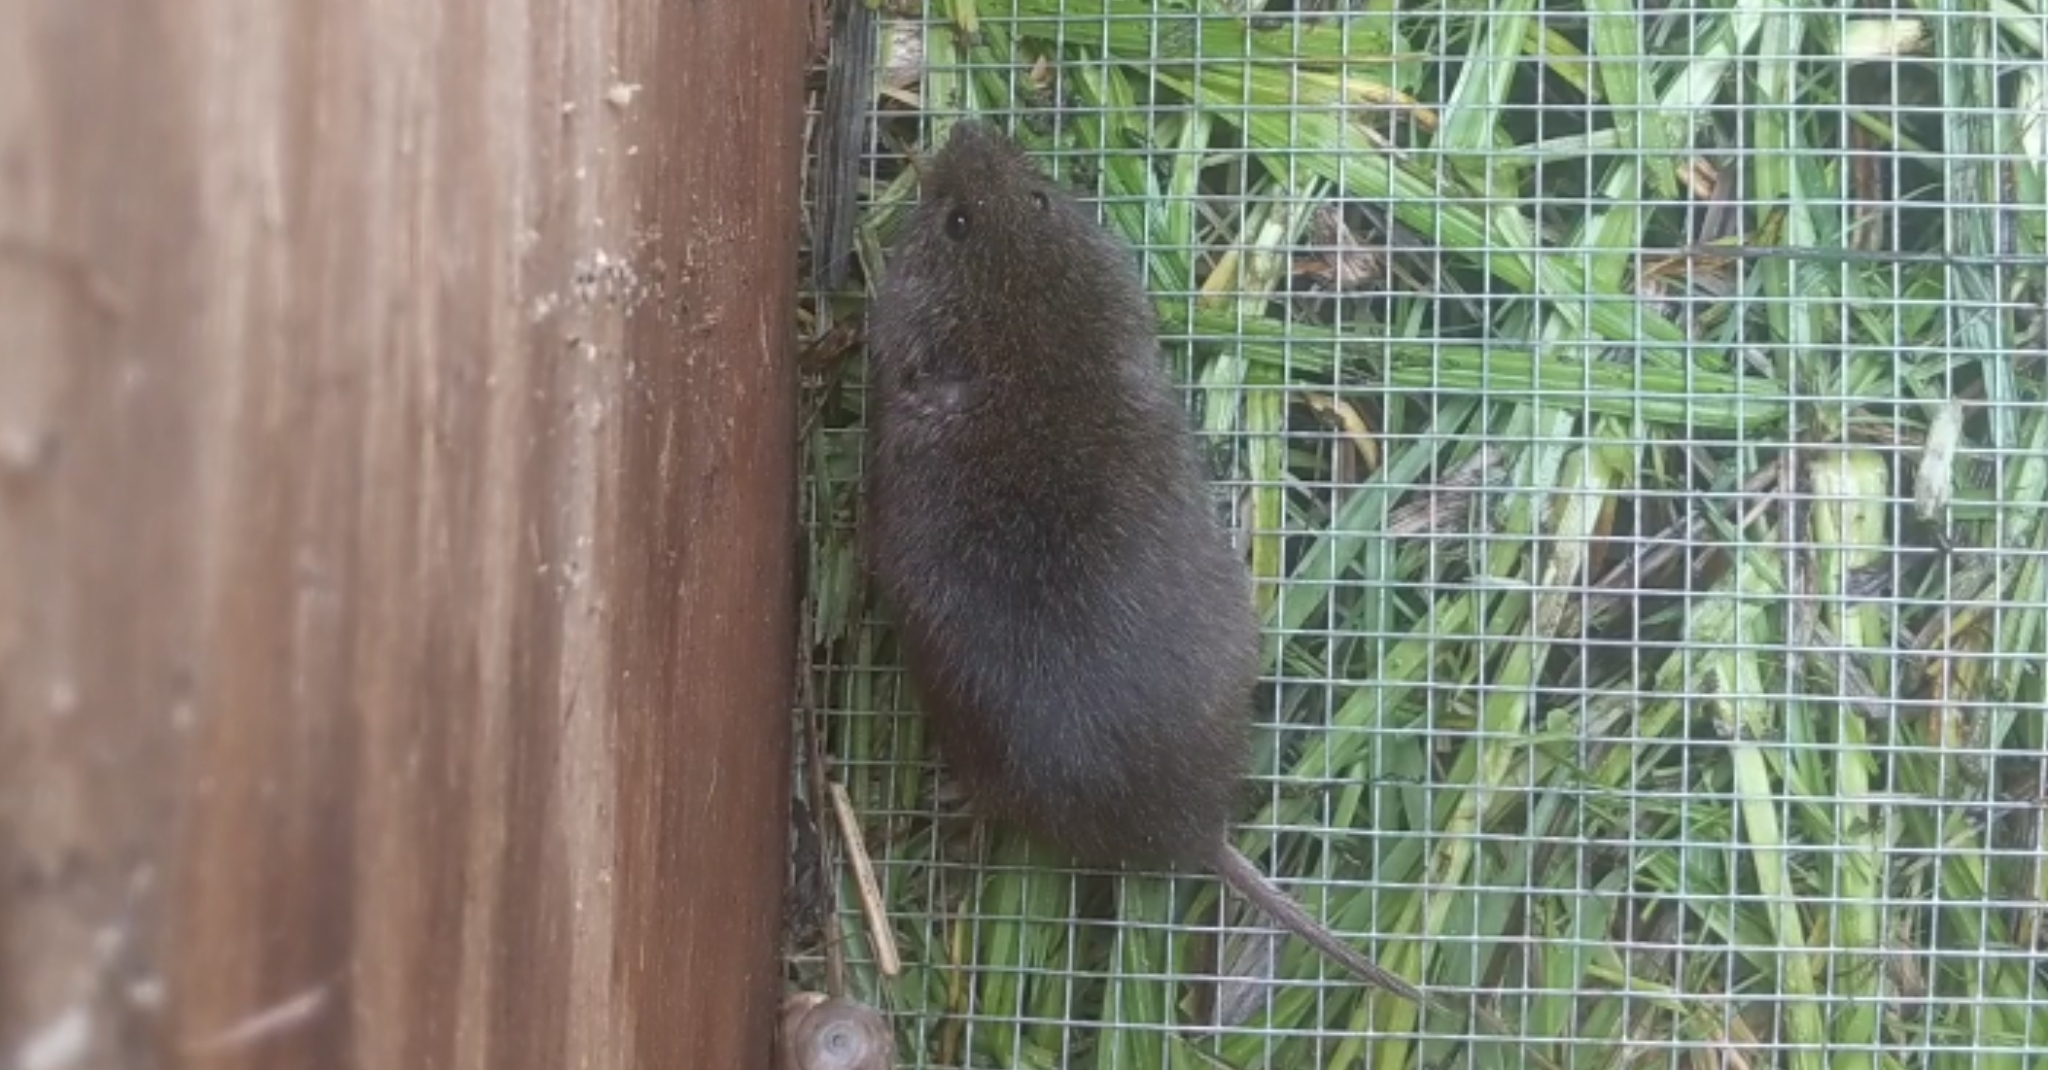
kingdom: Animalia
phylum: Chordata
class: Mammalia
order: Rodentia
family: Cricetidae
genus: Microtus
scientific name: Microtus pennsylvanicus
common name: Meadow vole
